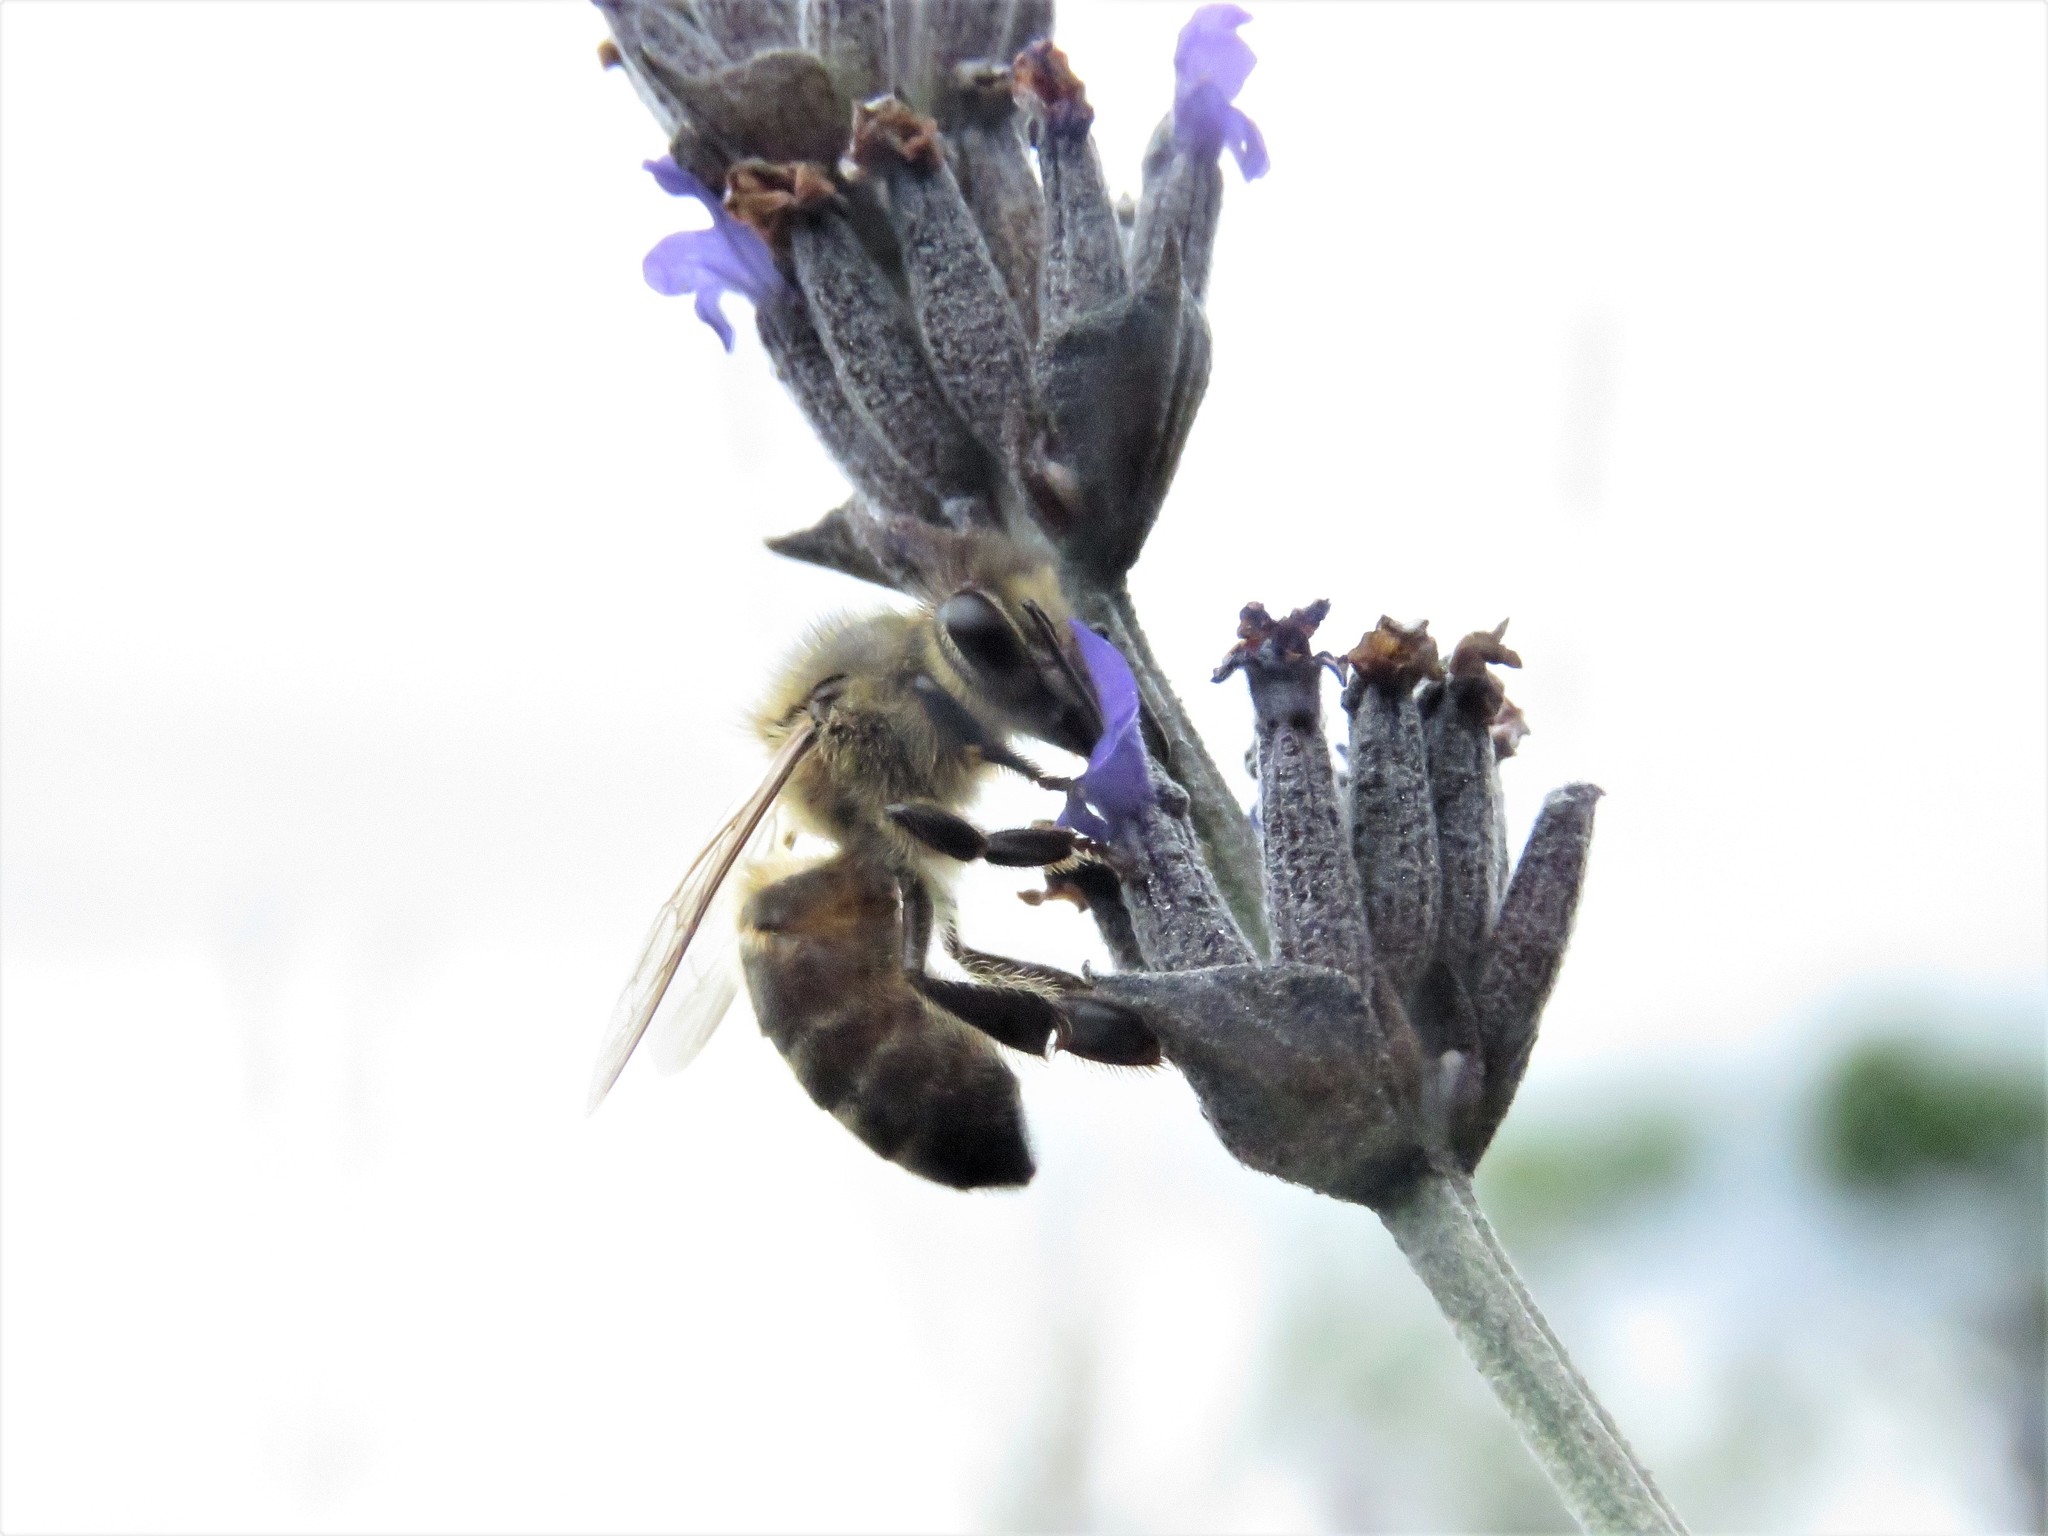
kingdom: Animalia
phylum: Arthropoda
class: Insecta
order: Hymenoptera
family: Apidae
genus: Apis
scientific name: Apis mellifera
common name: Honey bee
